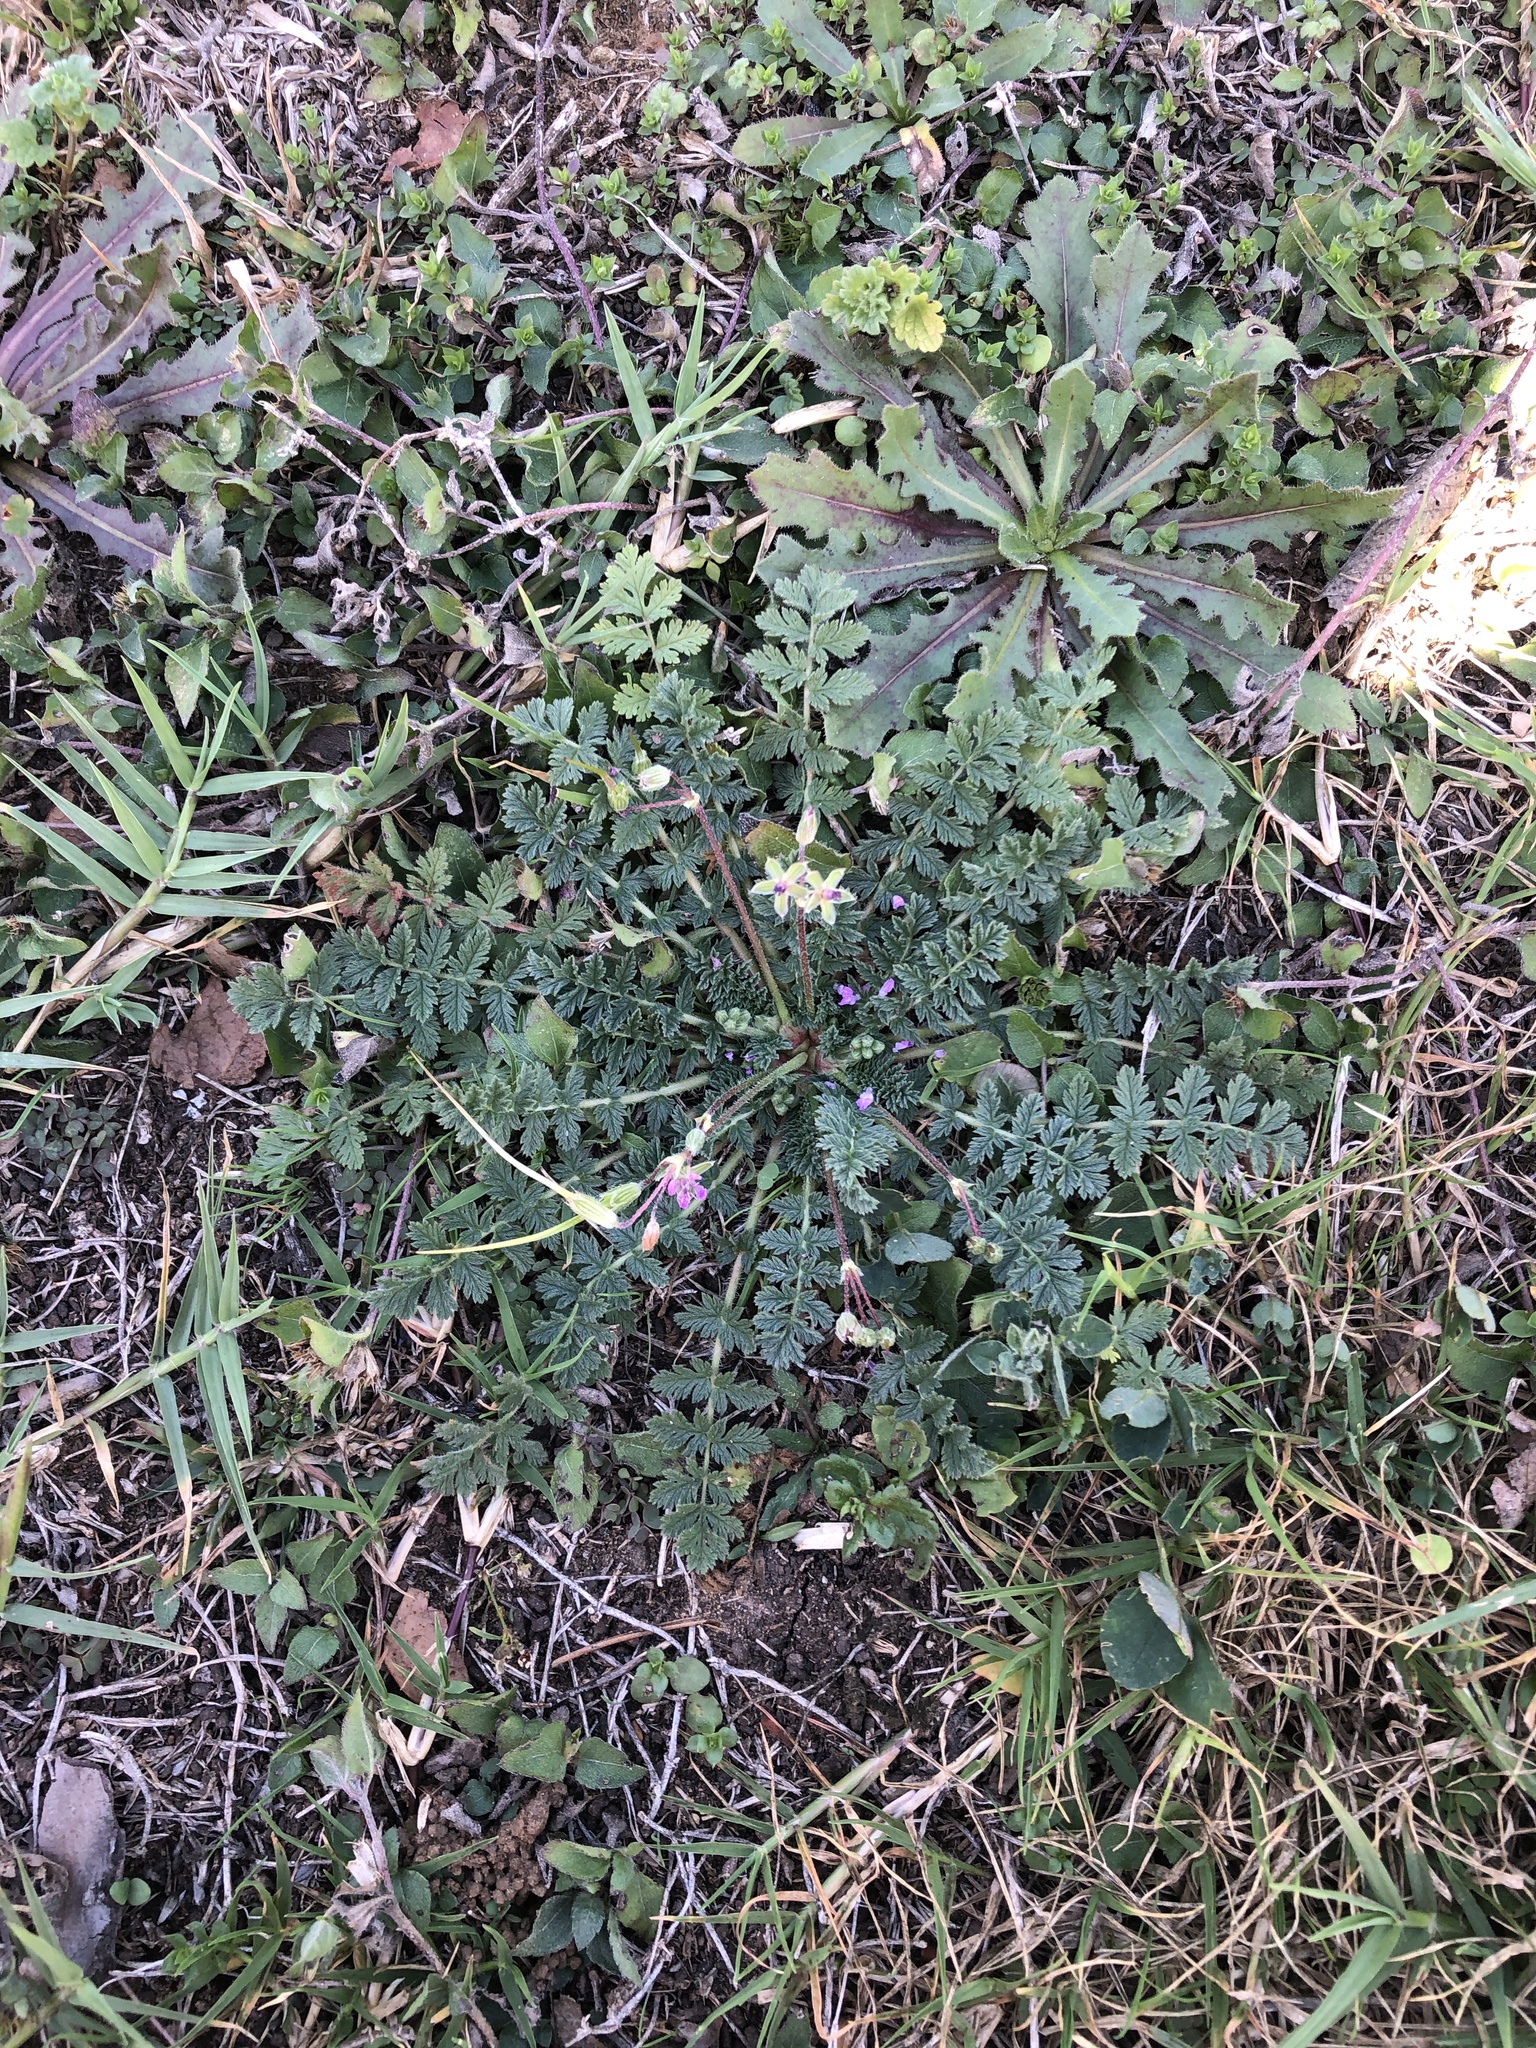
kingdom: Plantae
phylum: Tracheophyta
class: Magnoliopsida
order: Geraniales
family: Geraniaceae
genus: Erodium
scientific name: Erodium cicutarium
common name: Common stork's-bill
